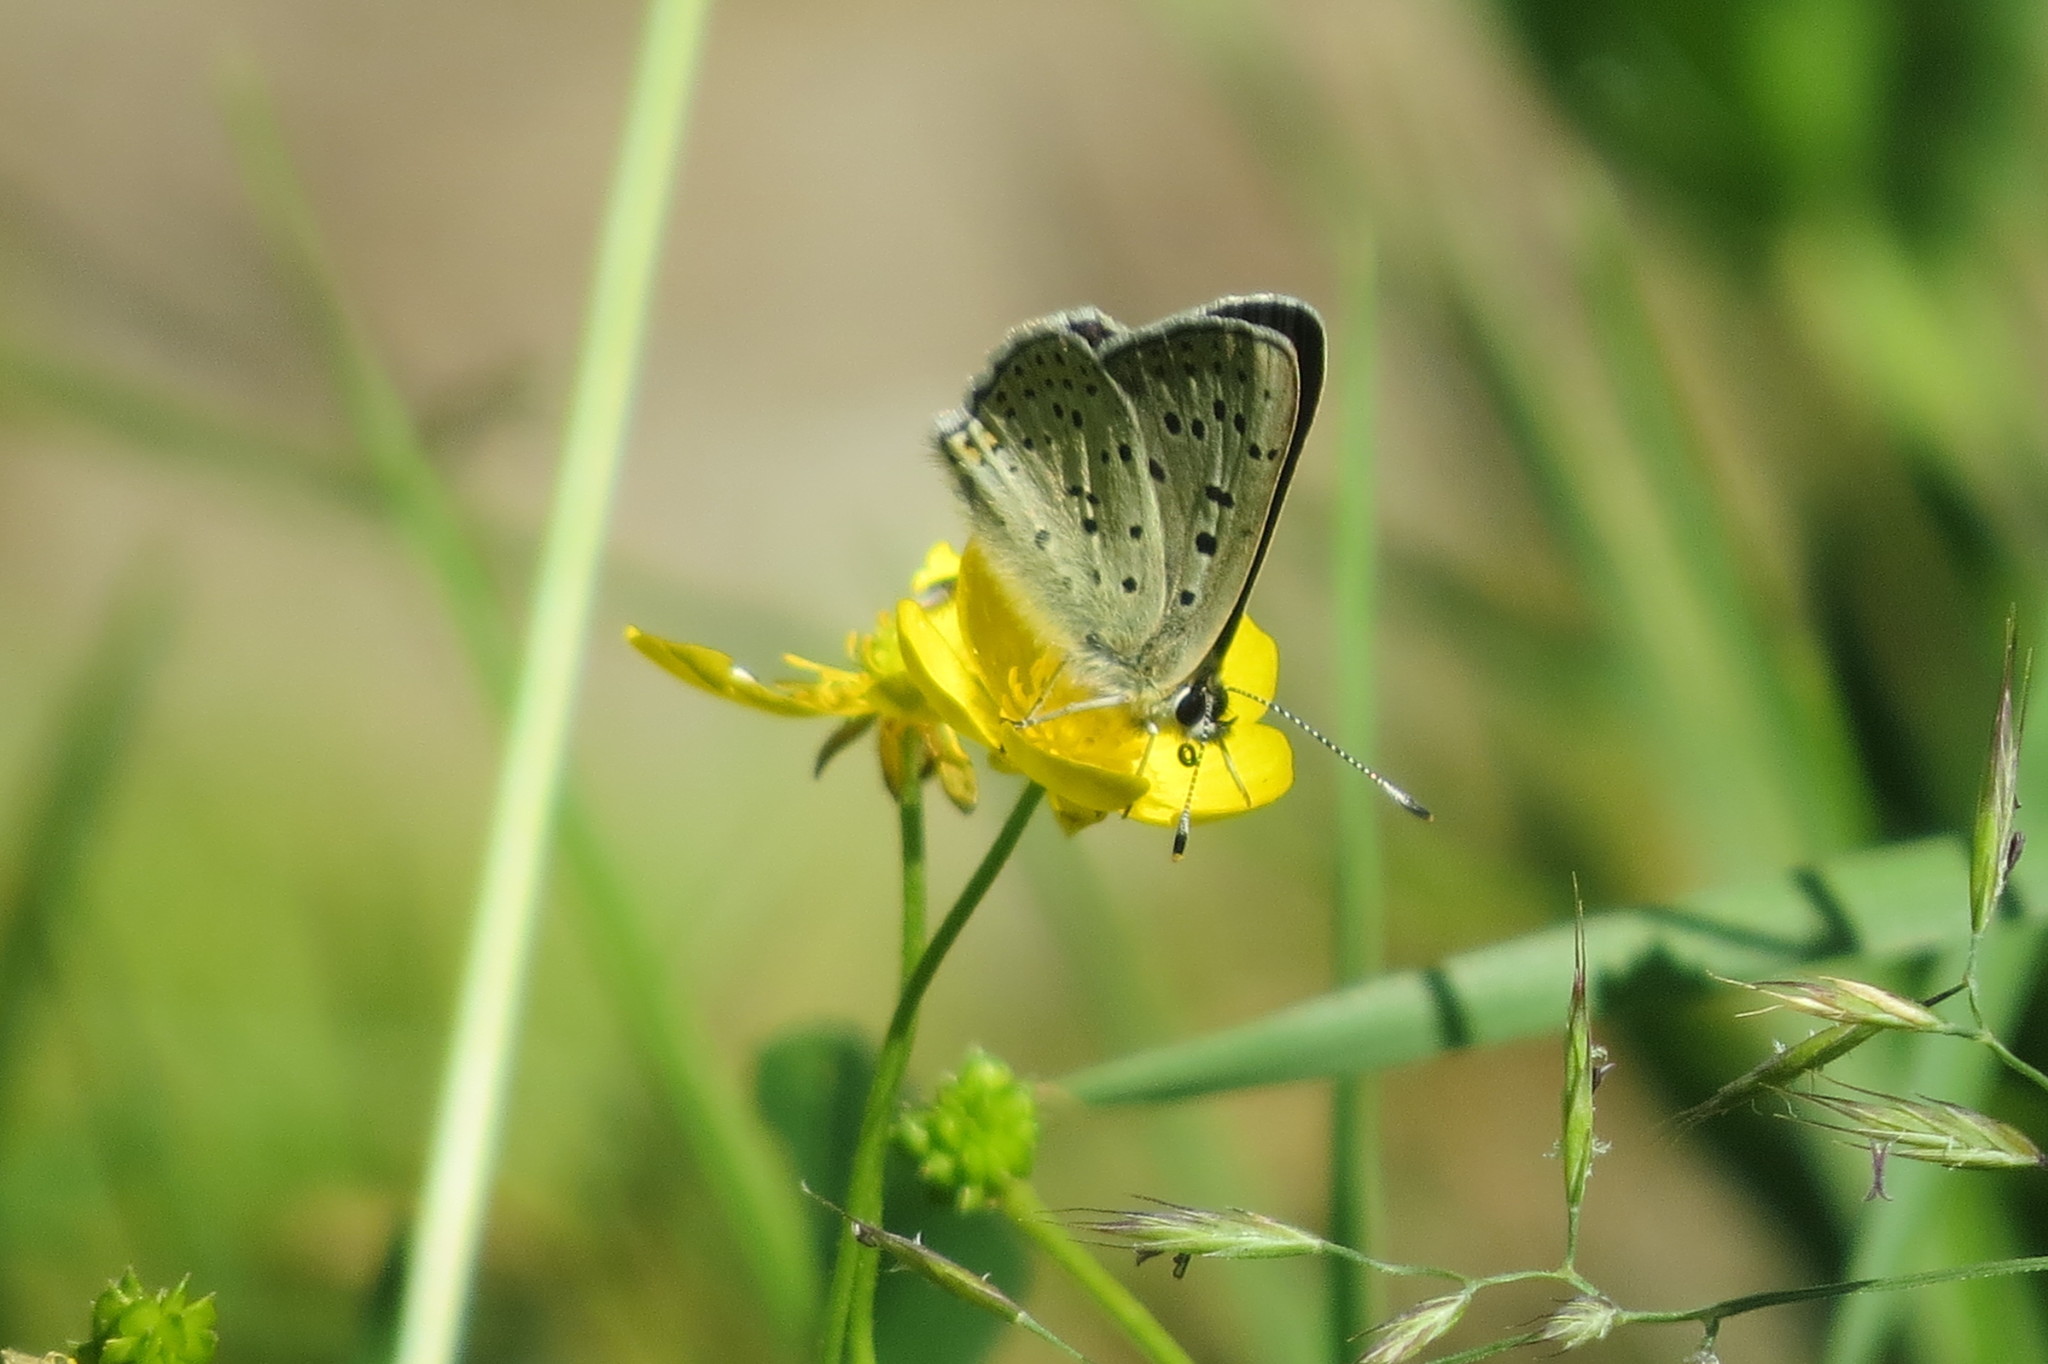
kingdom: Animalia
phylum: Arthropoda
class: Insecta
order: Lepidoptera
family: Lycaenidae
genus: Loweia
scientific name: Loweia tityrus
